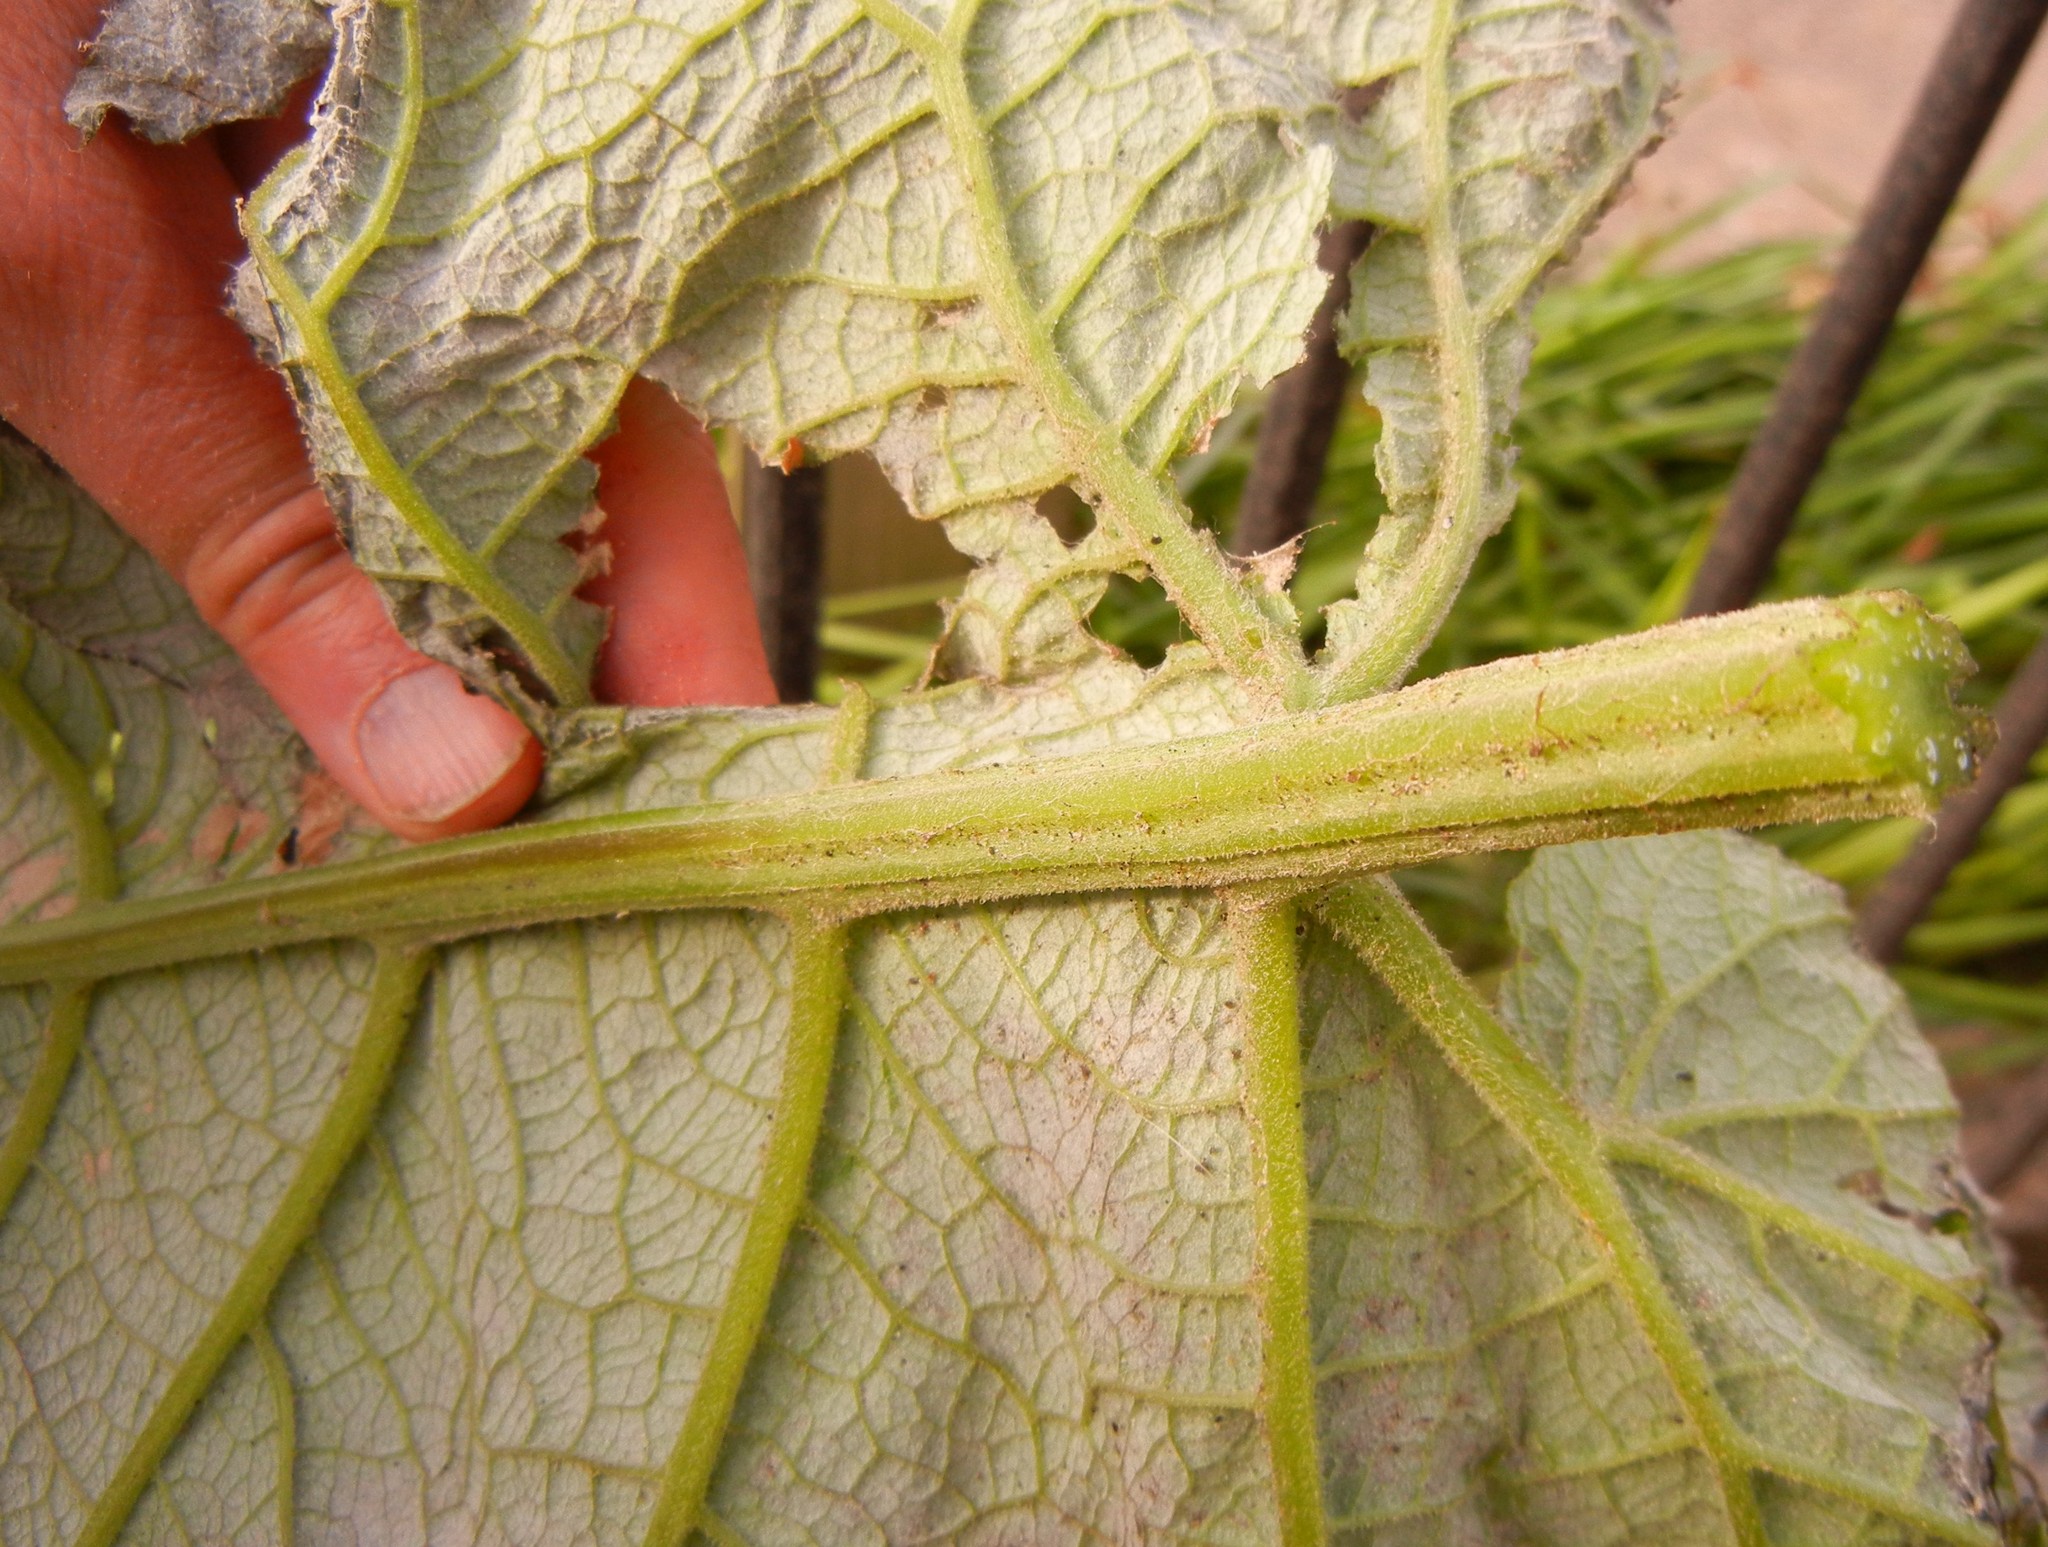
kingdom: Plantae
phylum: Tracheophyta
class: Magnoliopsida
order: Asterales
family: Asteraceae
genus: Arctium
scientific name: Arctium lappa
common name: Greater burdock
